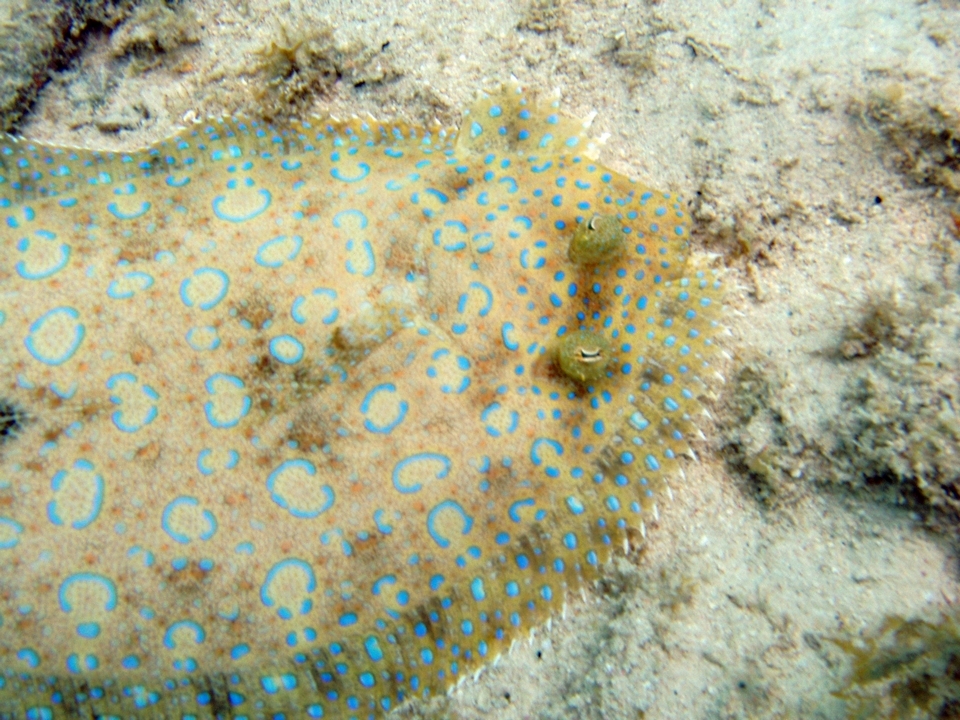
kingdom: Animalia
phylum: Chordata
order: Pleuronectiformes
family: Bothidae
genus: Bothus
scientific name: Bothus lunatus
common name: Peacock flounder
